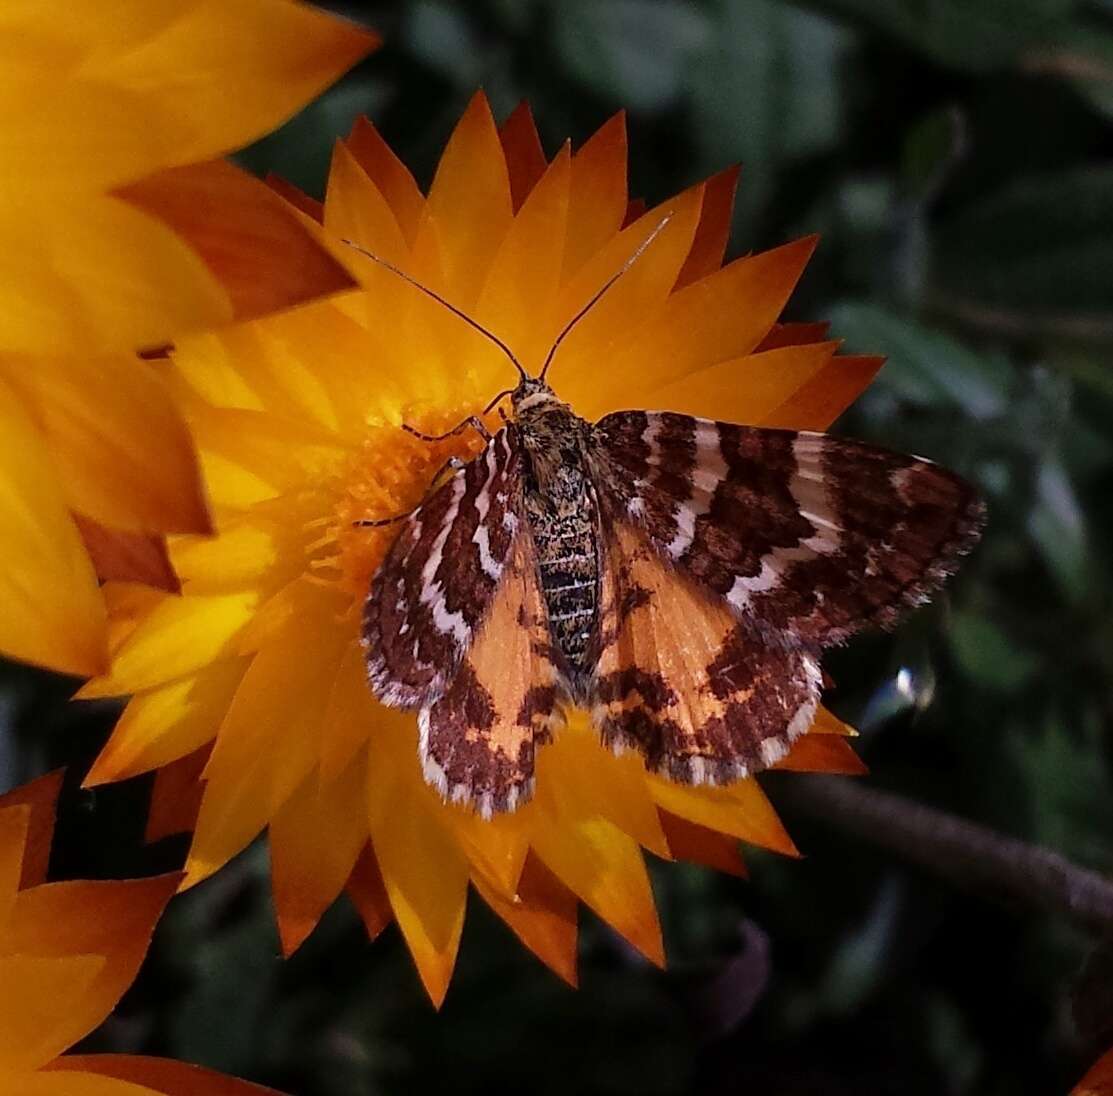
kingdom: Animalia
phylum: Arthropoda
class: Insecta
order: Lepidoptera
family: Geometridae
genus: Chrysolarentia
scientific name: Chrysolarentia polycarpa
